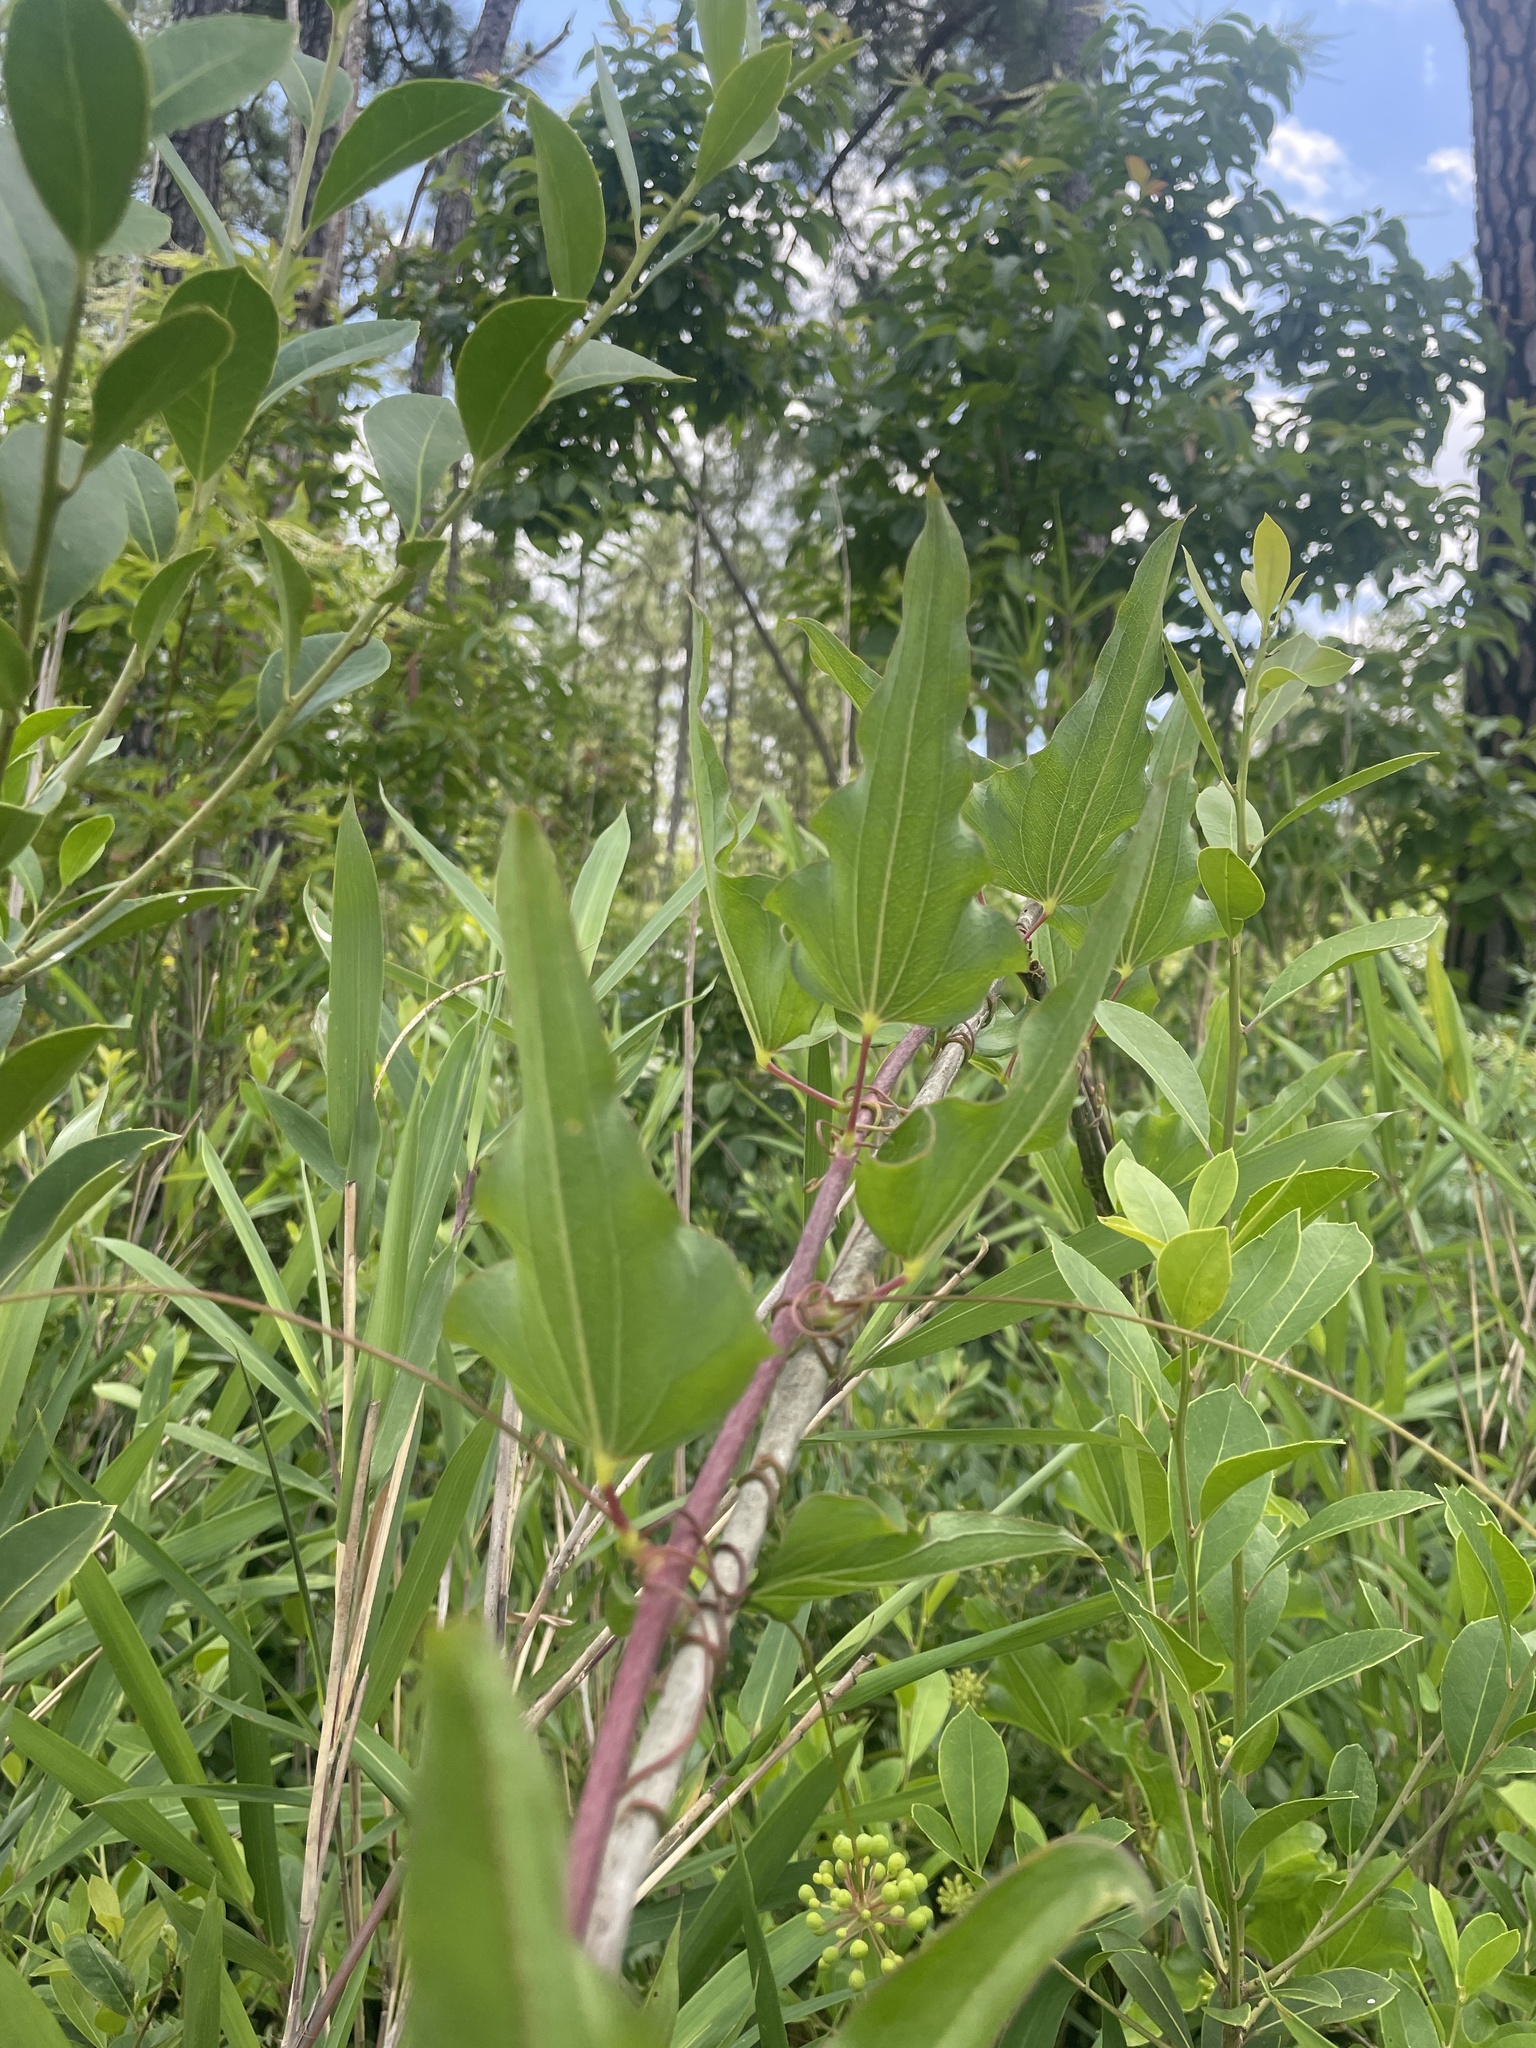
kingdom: Plantae
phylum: Tracheophyta
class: Liliopsida
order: Liliales
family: Smilacaceae
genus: Smilax
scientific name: Smilax pseudochina
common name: False chinaroot
